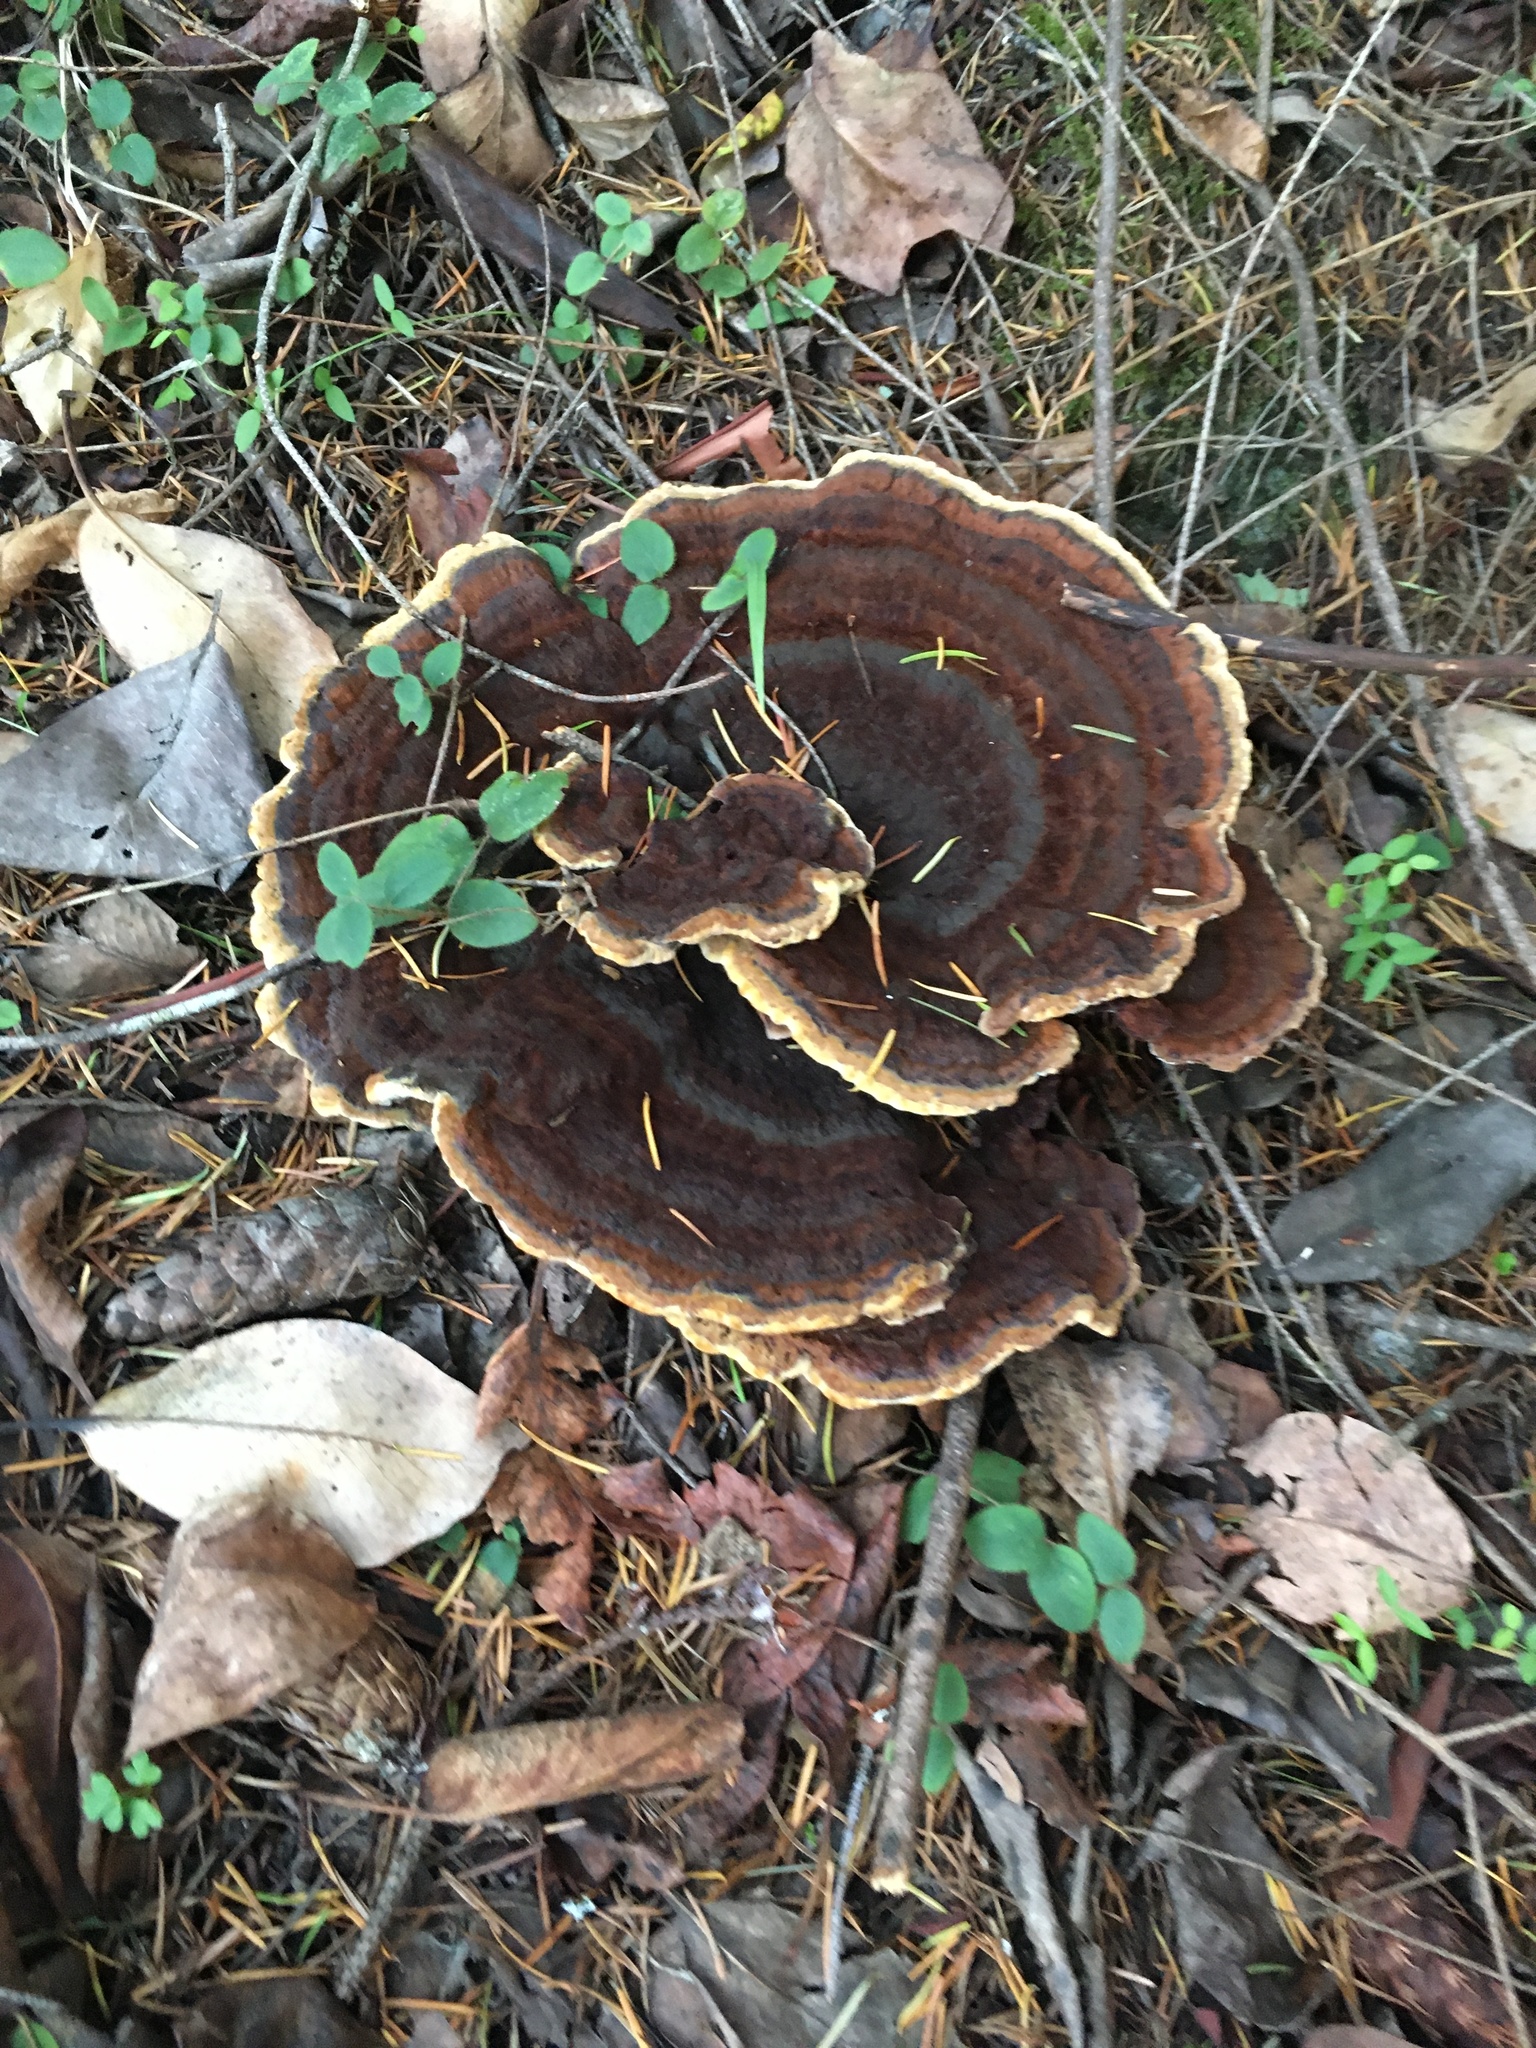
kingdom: Fungi
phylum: Basidiomycota
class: Agaricomycetes
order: Polyporales
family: Laetiporaceae
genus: Phaeolus
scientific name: Phaeolus schweinitzii
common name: Dyer's mazegill
